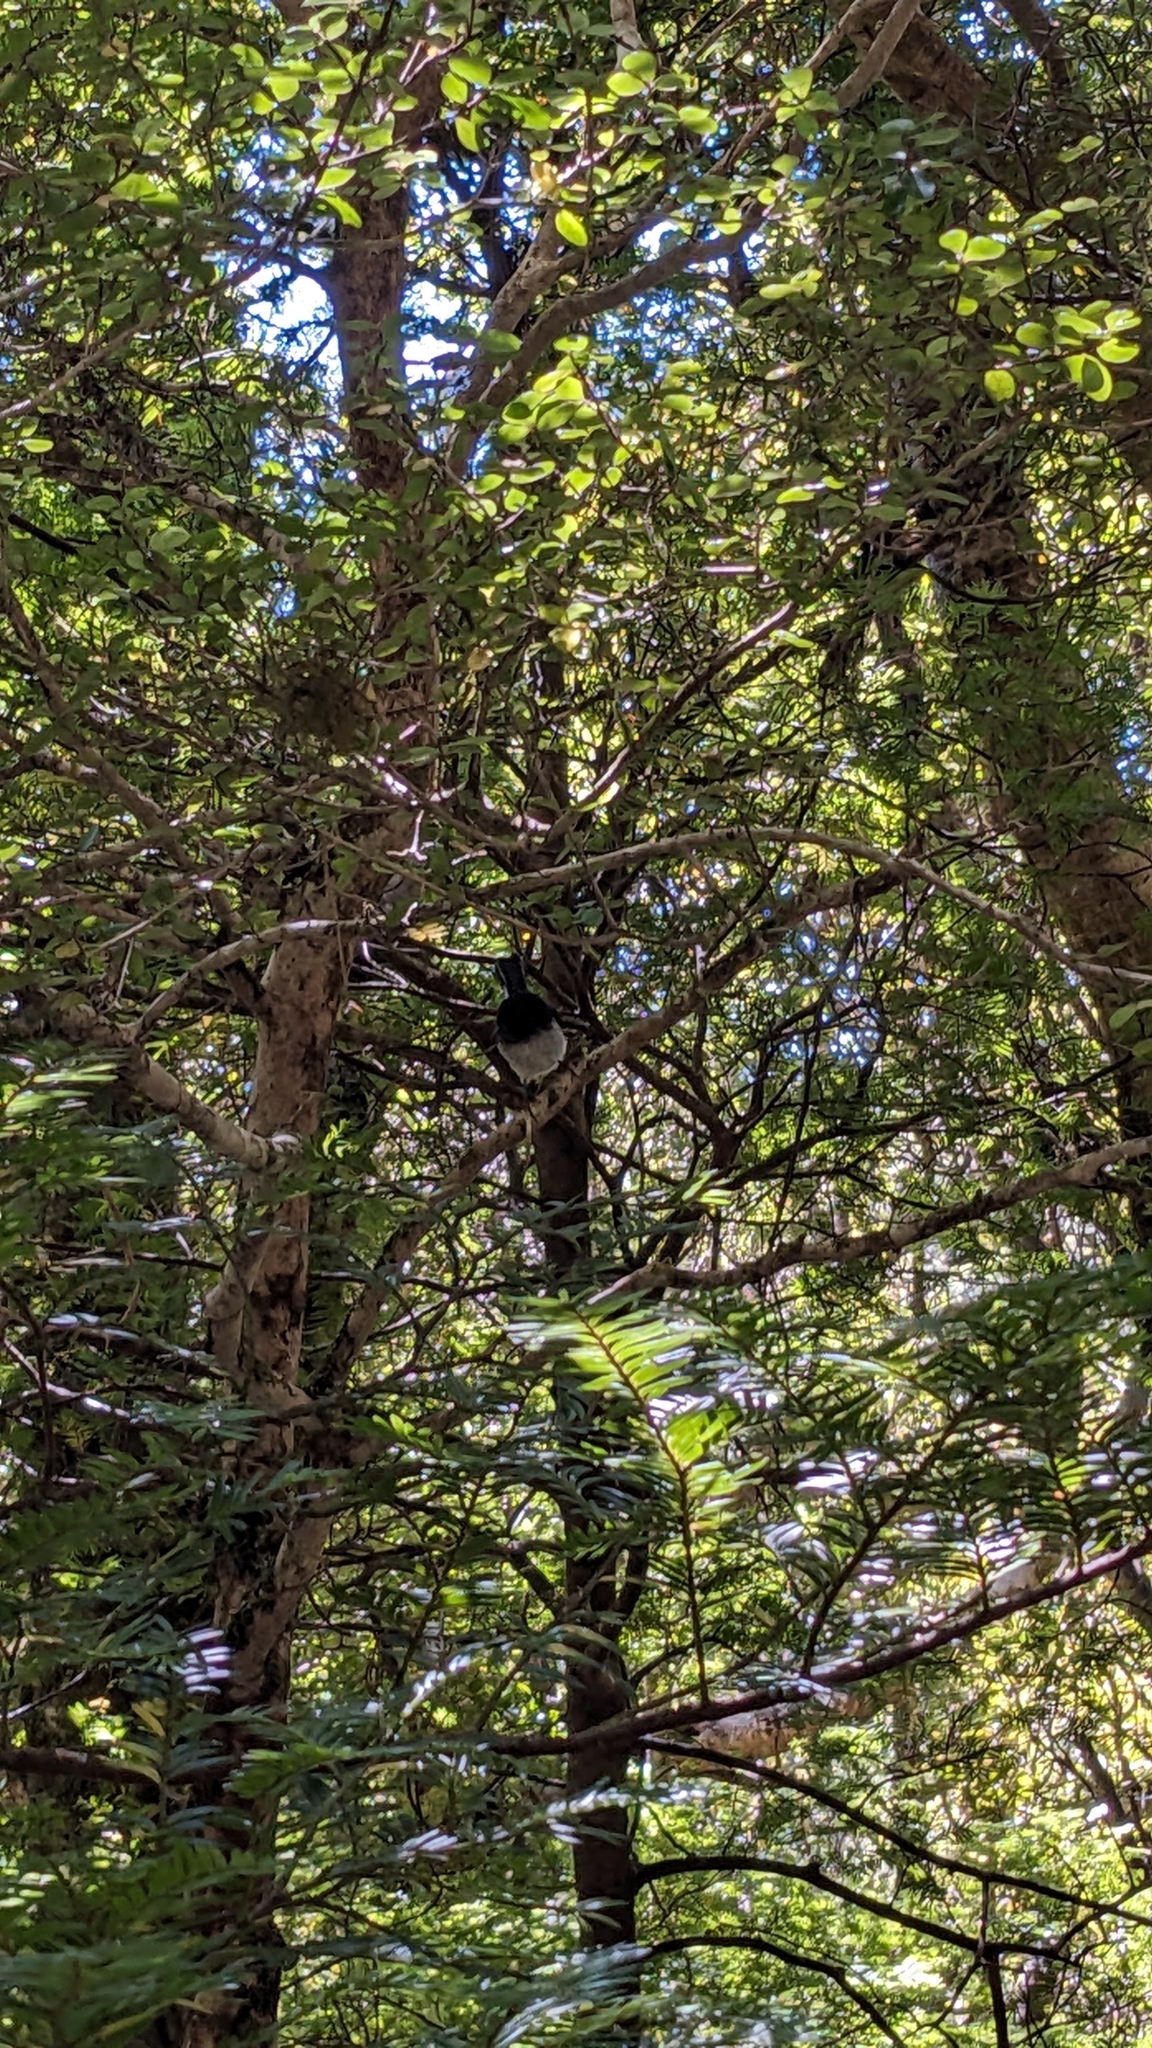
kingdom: Animalia
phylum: Chordata
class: Aves
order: Passeriformes
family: Petroicidae
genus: Petroica
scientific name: Petroica macrocephala
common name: Tomtit
